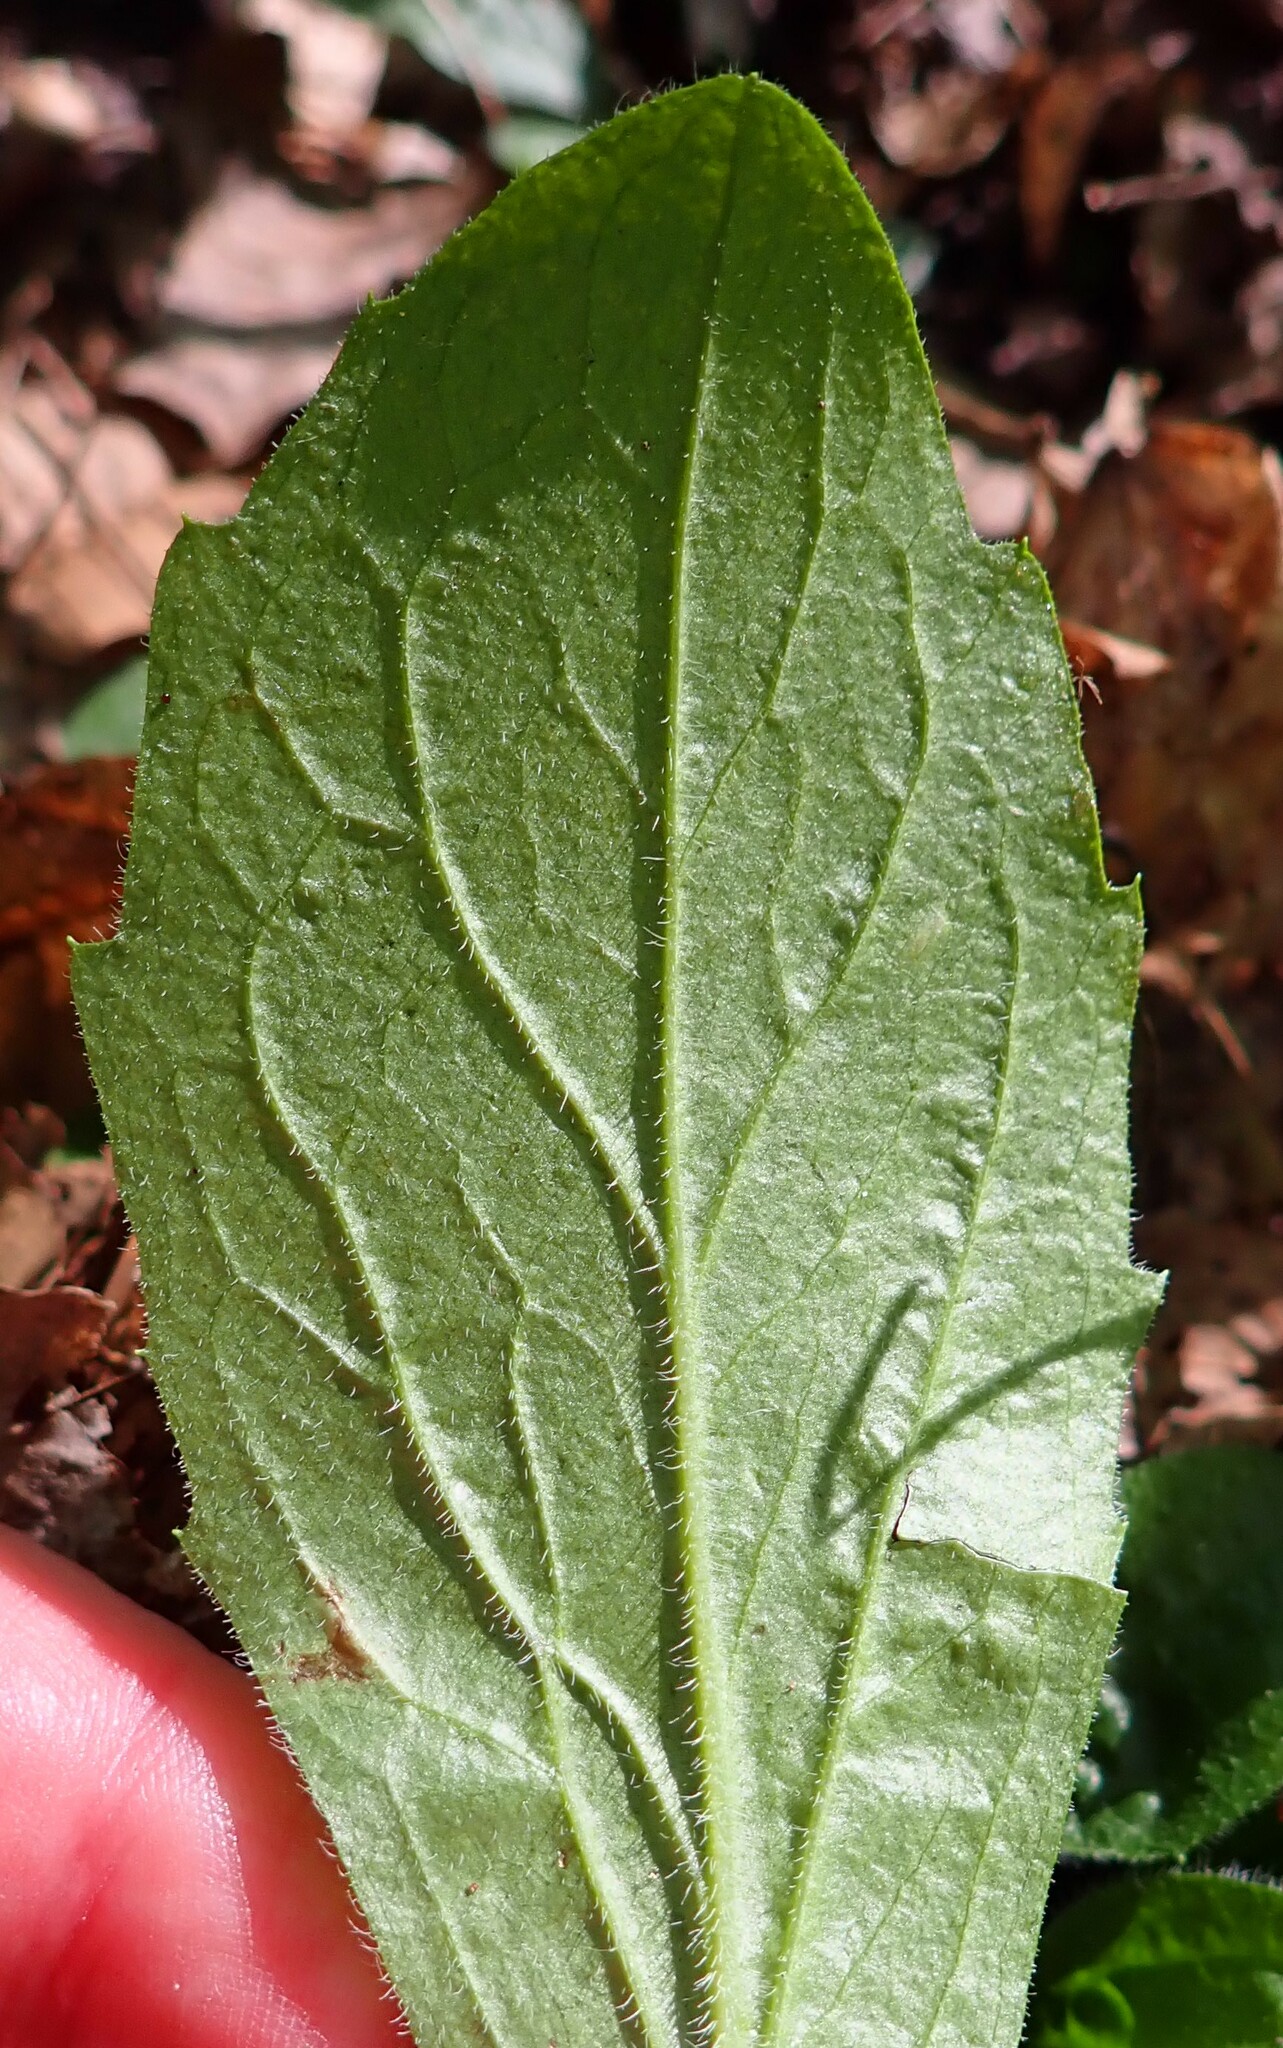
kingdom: Plantae
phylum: Tracheophyta
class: Magnoliopsida
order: Asterales
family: Asteraceae
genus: Erigeron
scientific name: Erigeron pulchellus
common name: Hairy fleabane
